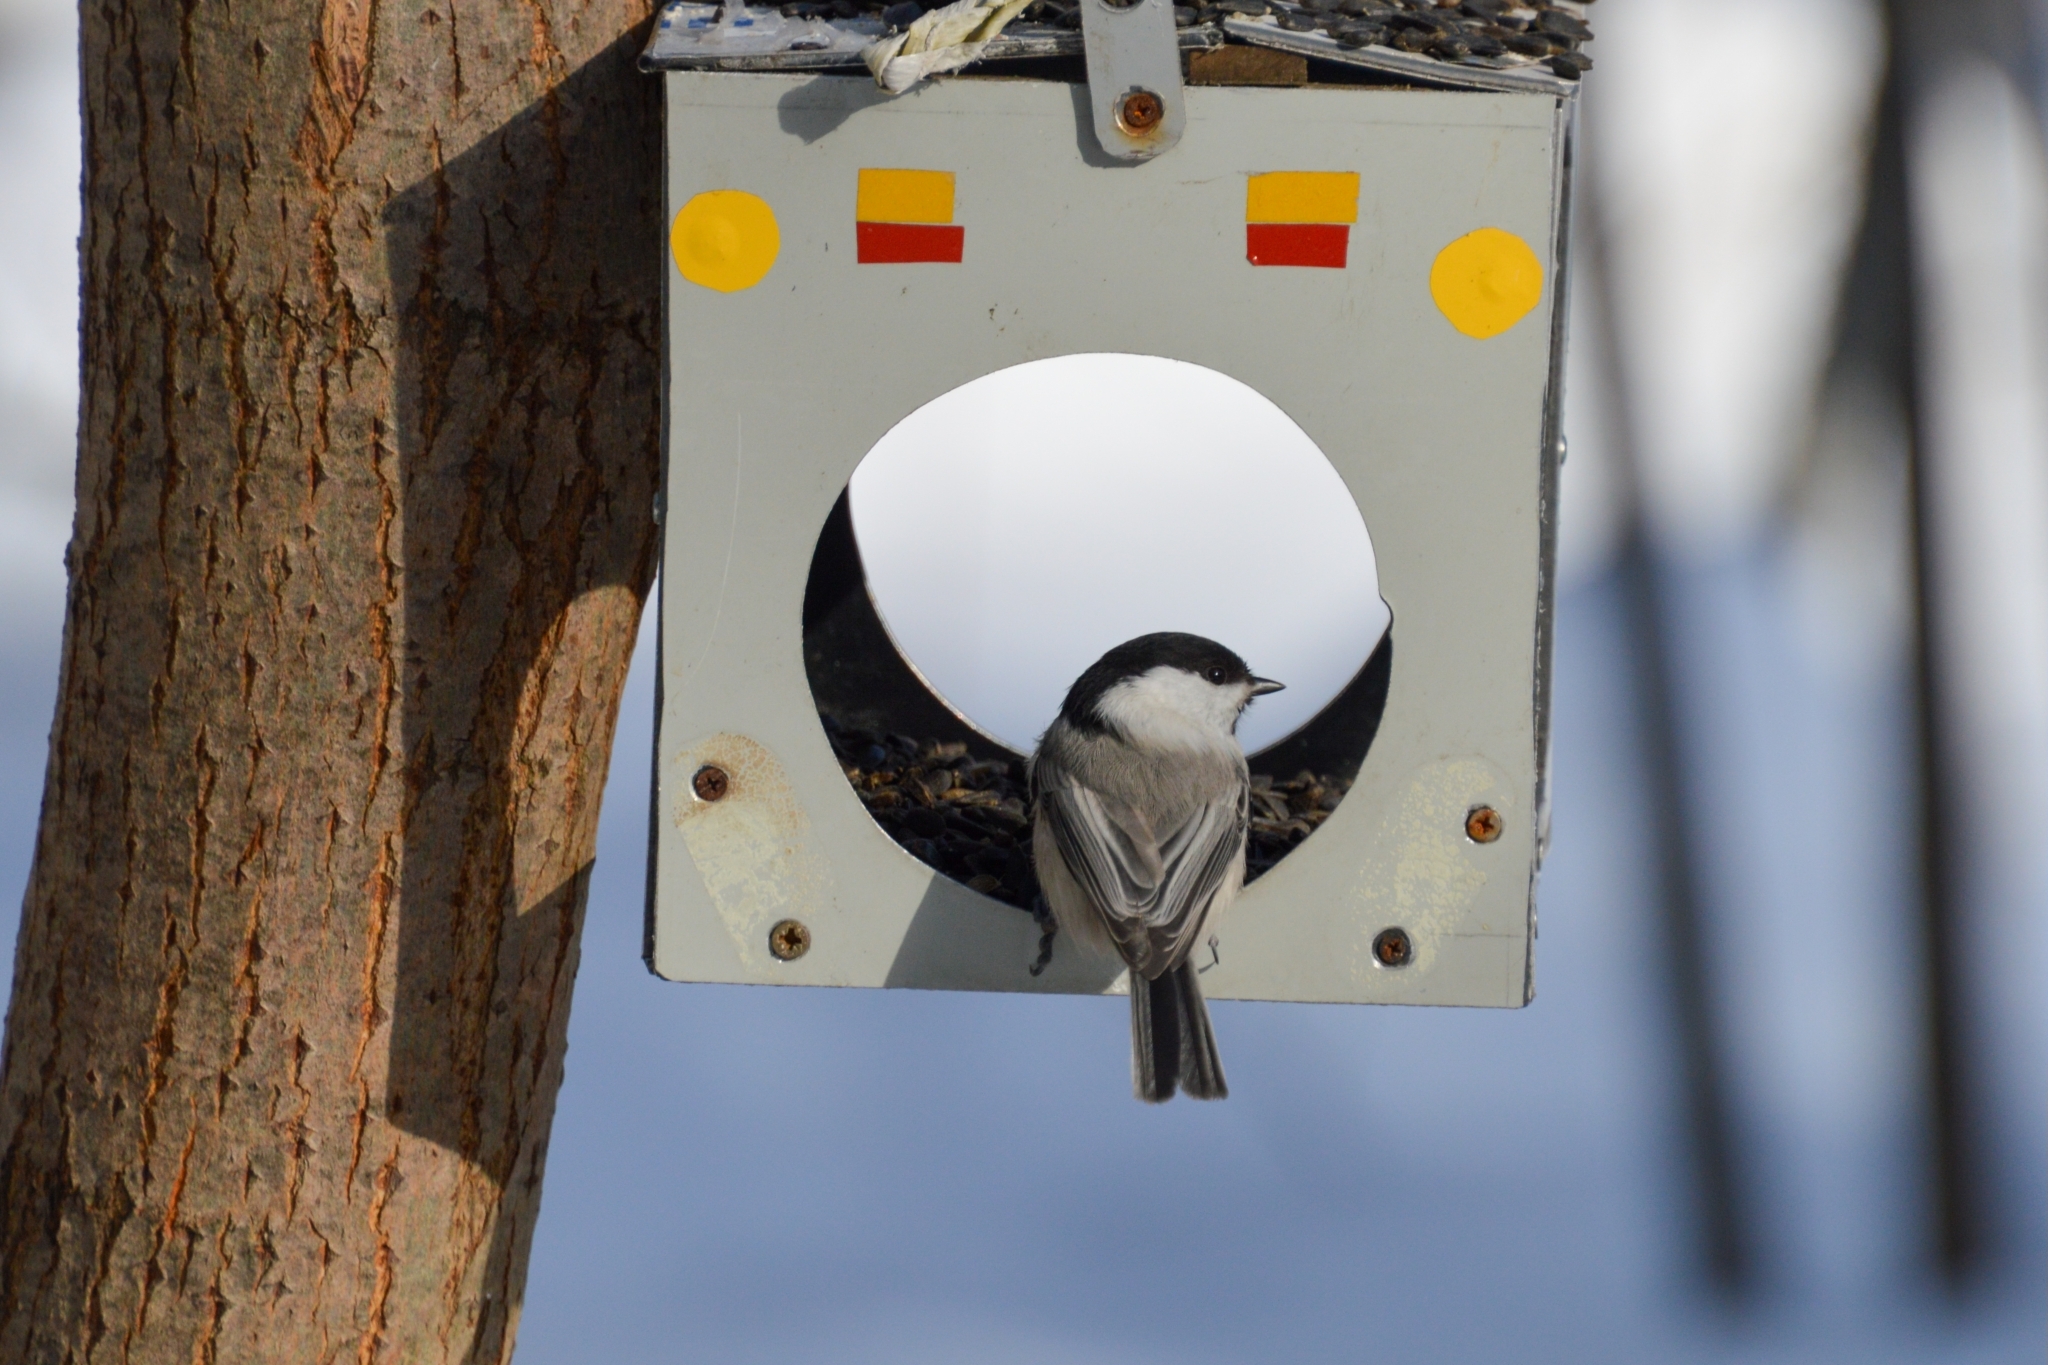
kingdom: Animalia
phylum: Chordata
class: Aves
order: Passeriformes
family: Paridae
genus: Poecile
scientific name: Poecile montanus
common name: Willow tit
